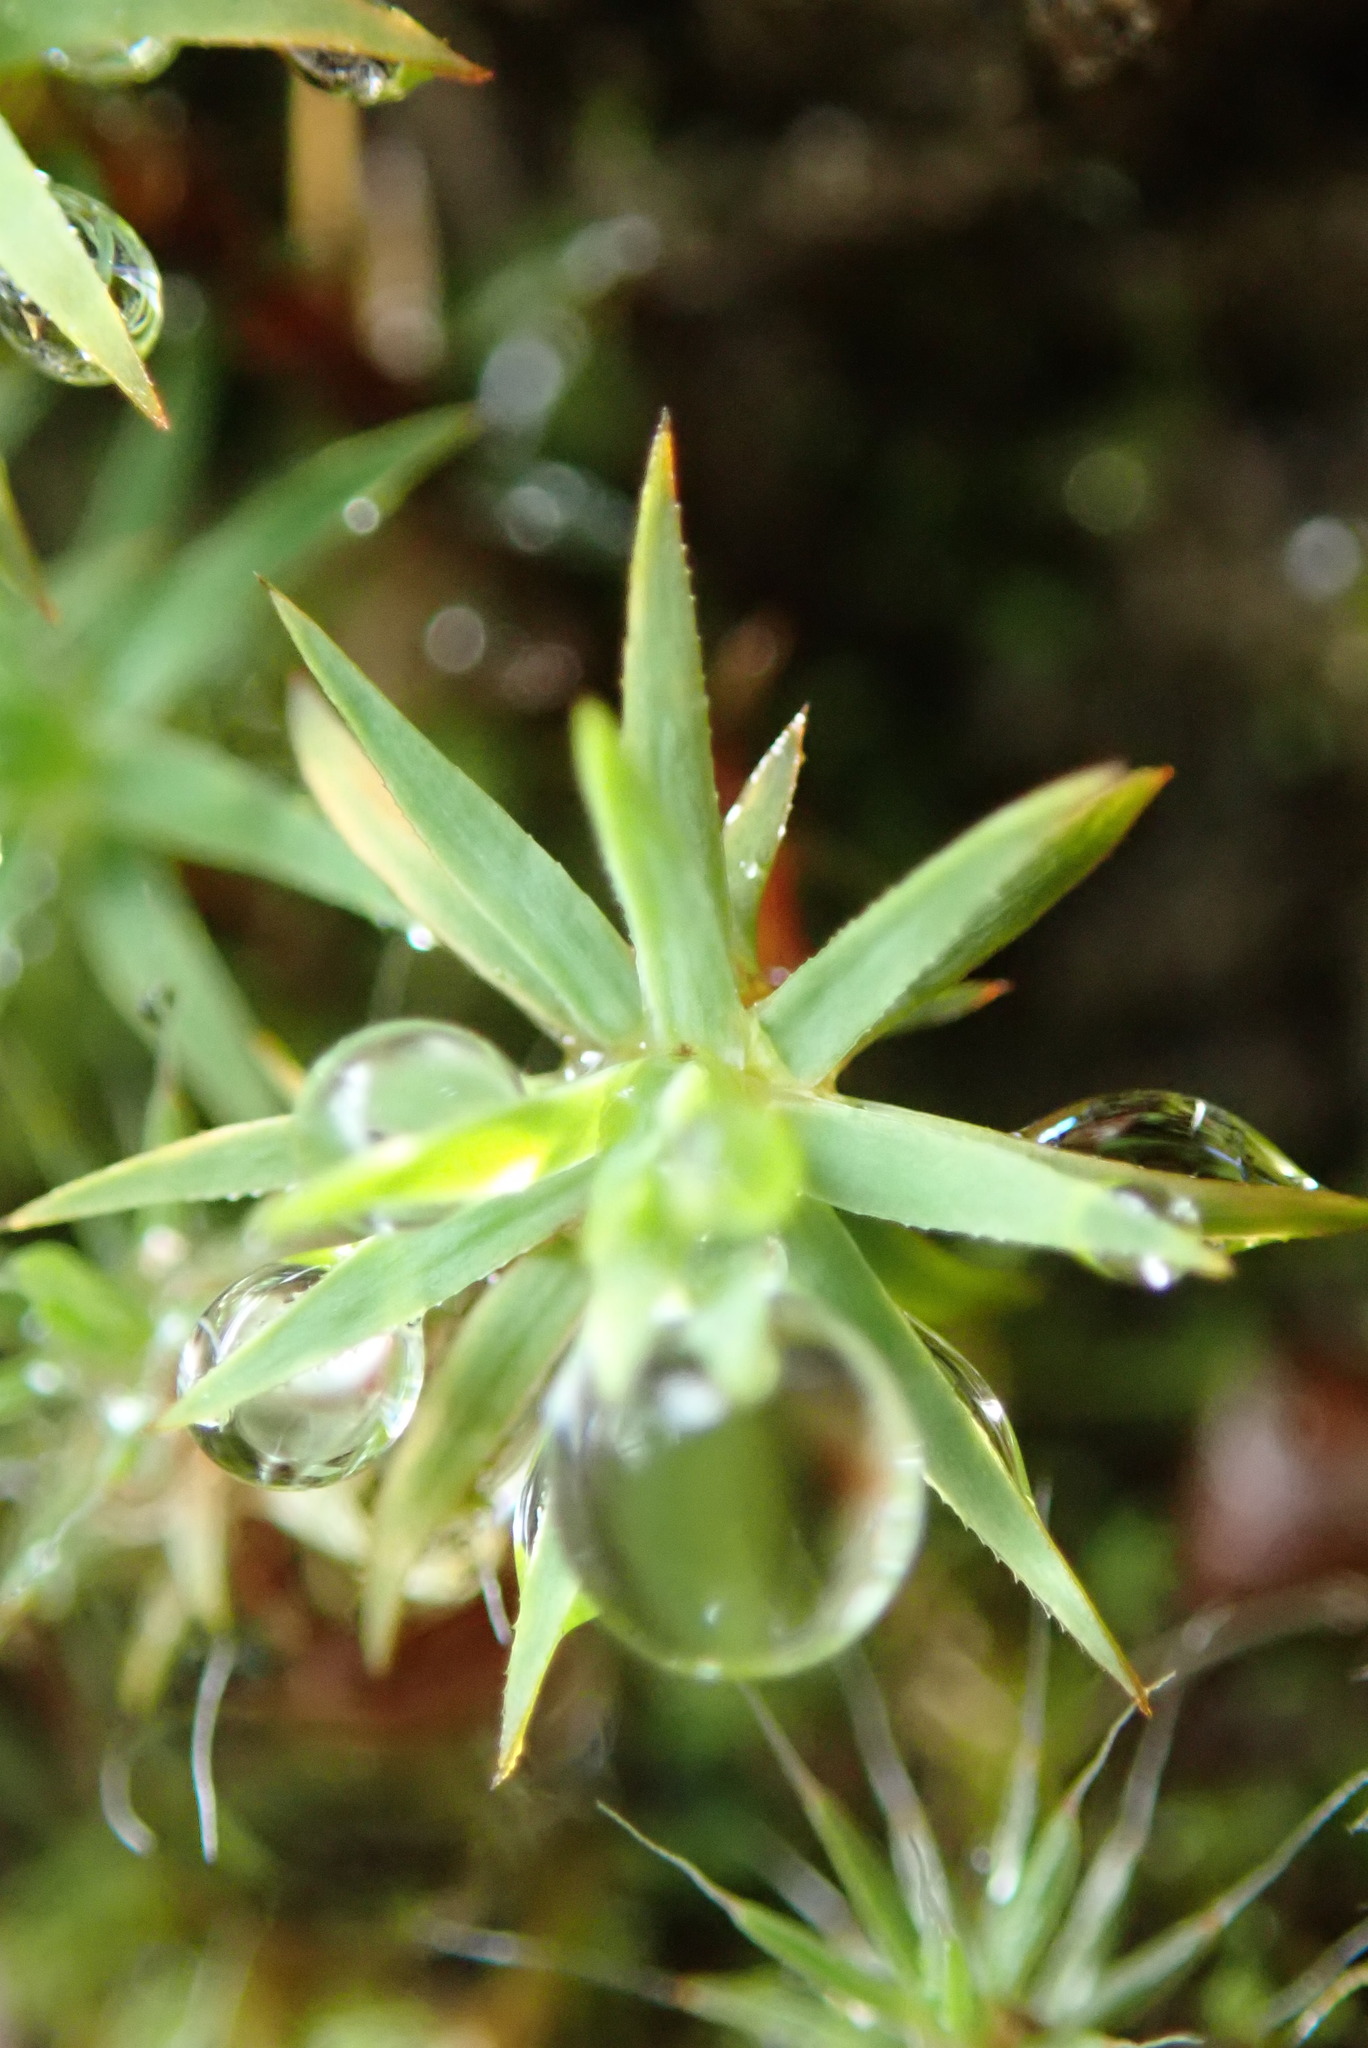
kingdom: Plantae
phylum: Bryophyta
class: Polytrichopsida
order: Polytrichales
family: Polytrichaceae
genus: Pogonatum
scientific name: Pogonatum urnigerum
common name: Urn hair moss
